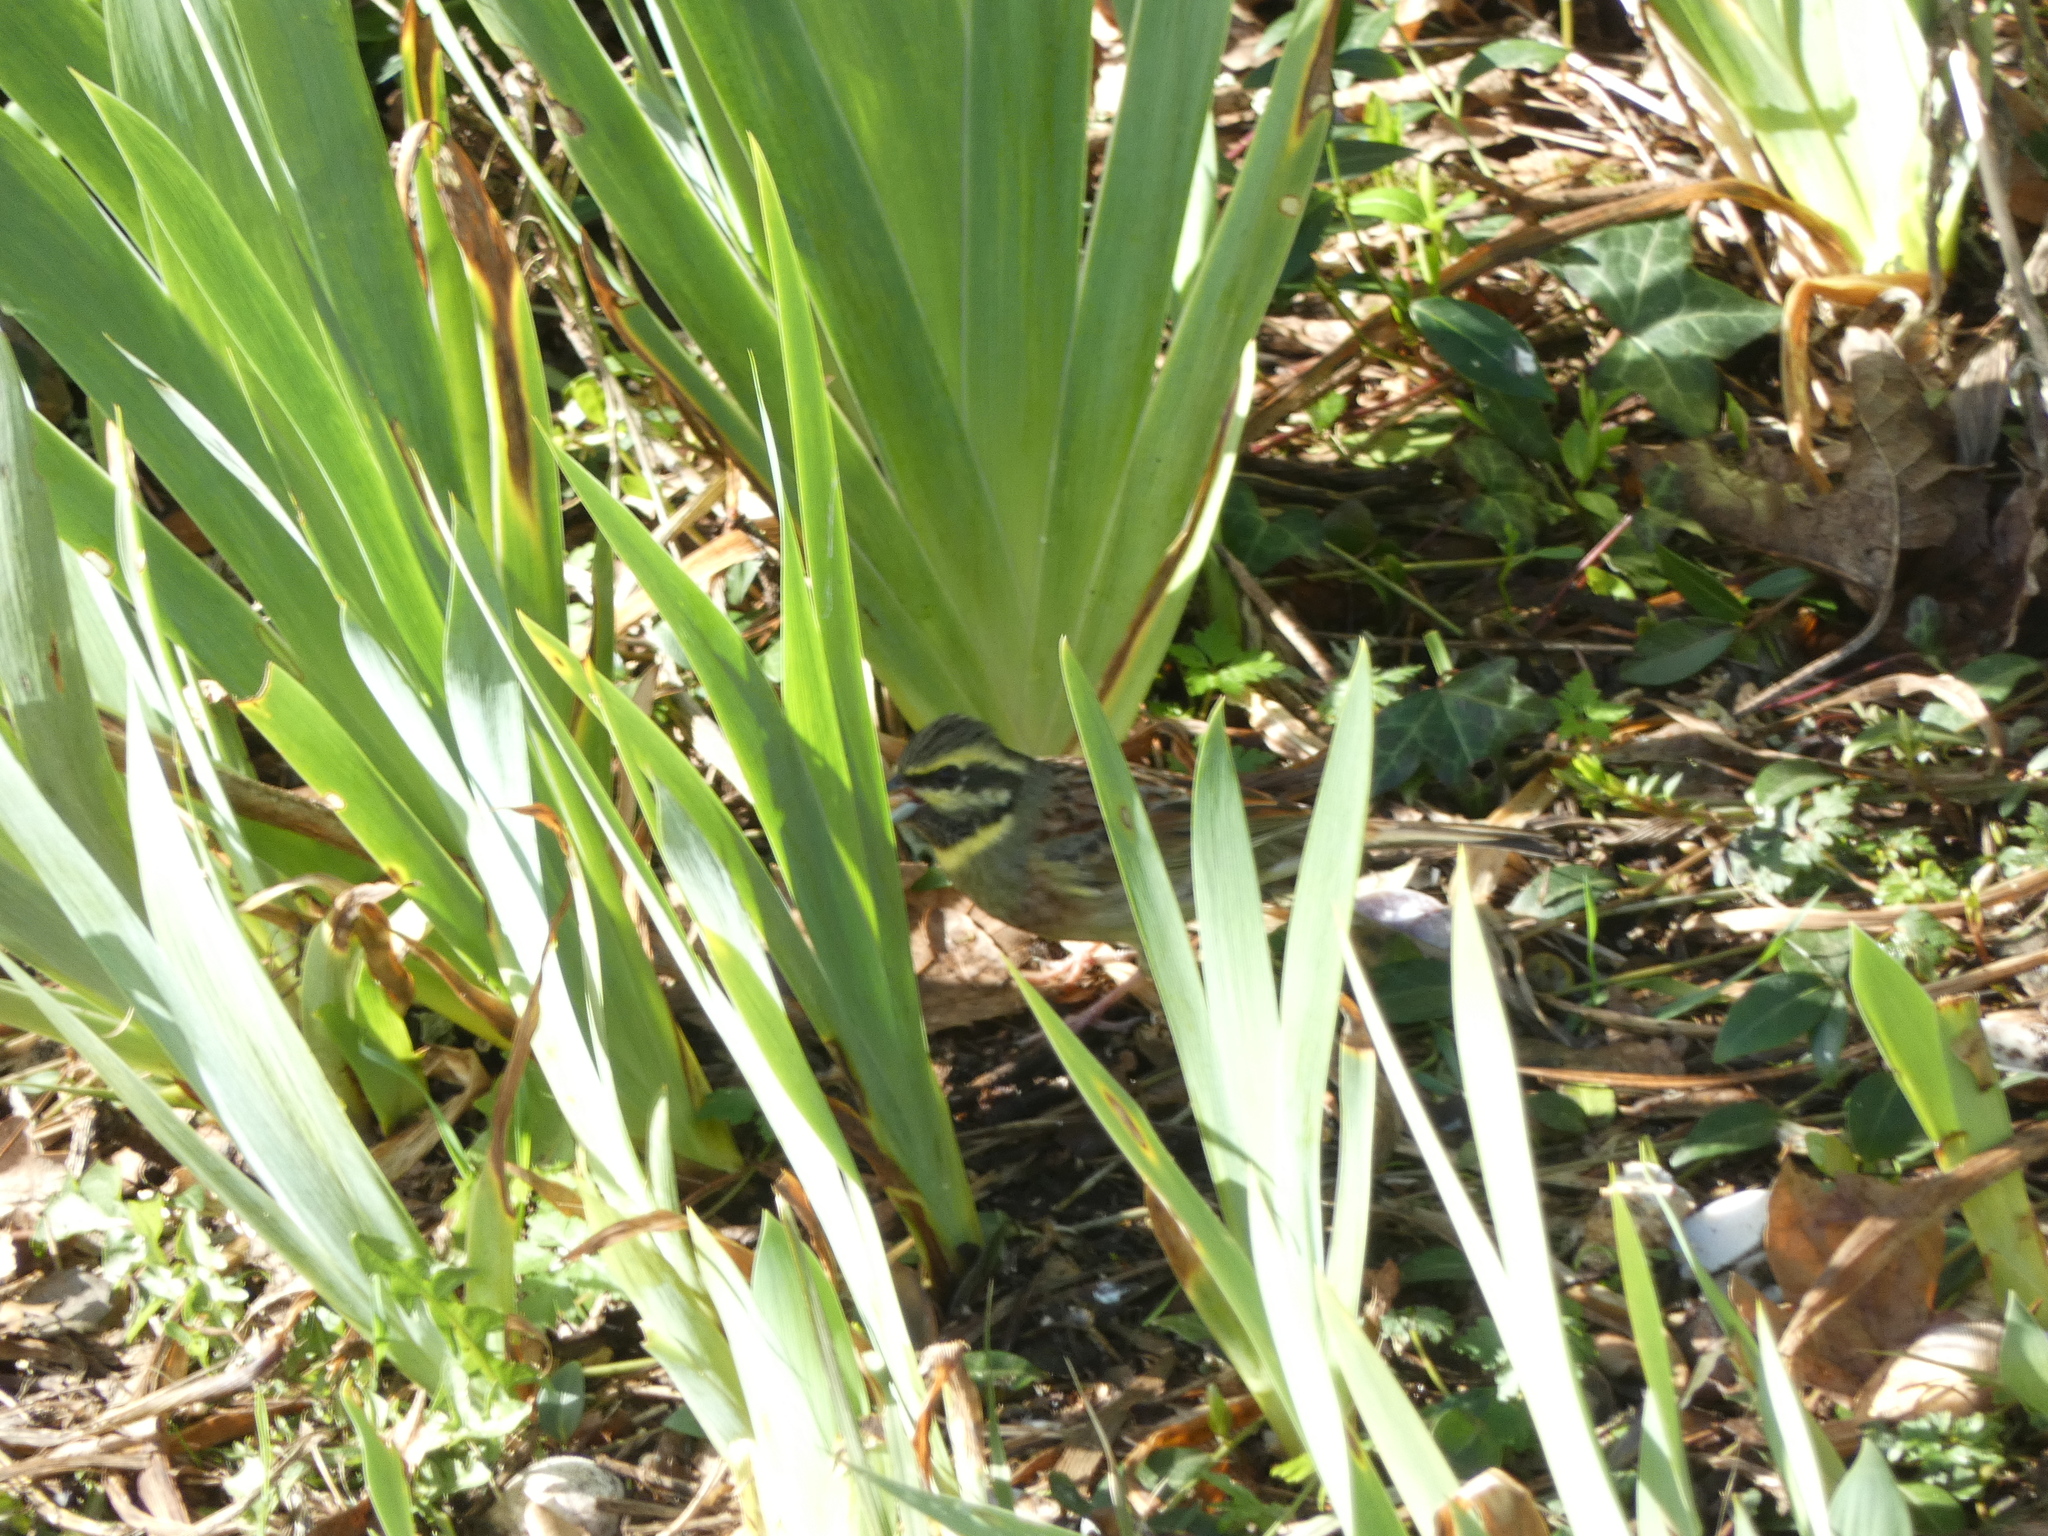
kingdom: Animalia
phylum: Chordata
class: Aves
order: Passeriformes
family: Emberizidae
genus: Emberiza
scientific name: Emberiza cirlus
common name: Cirl bunting
